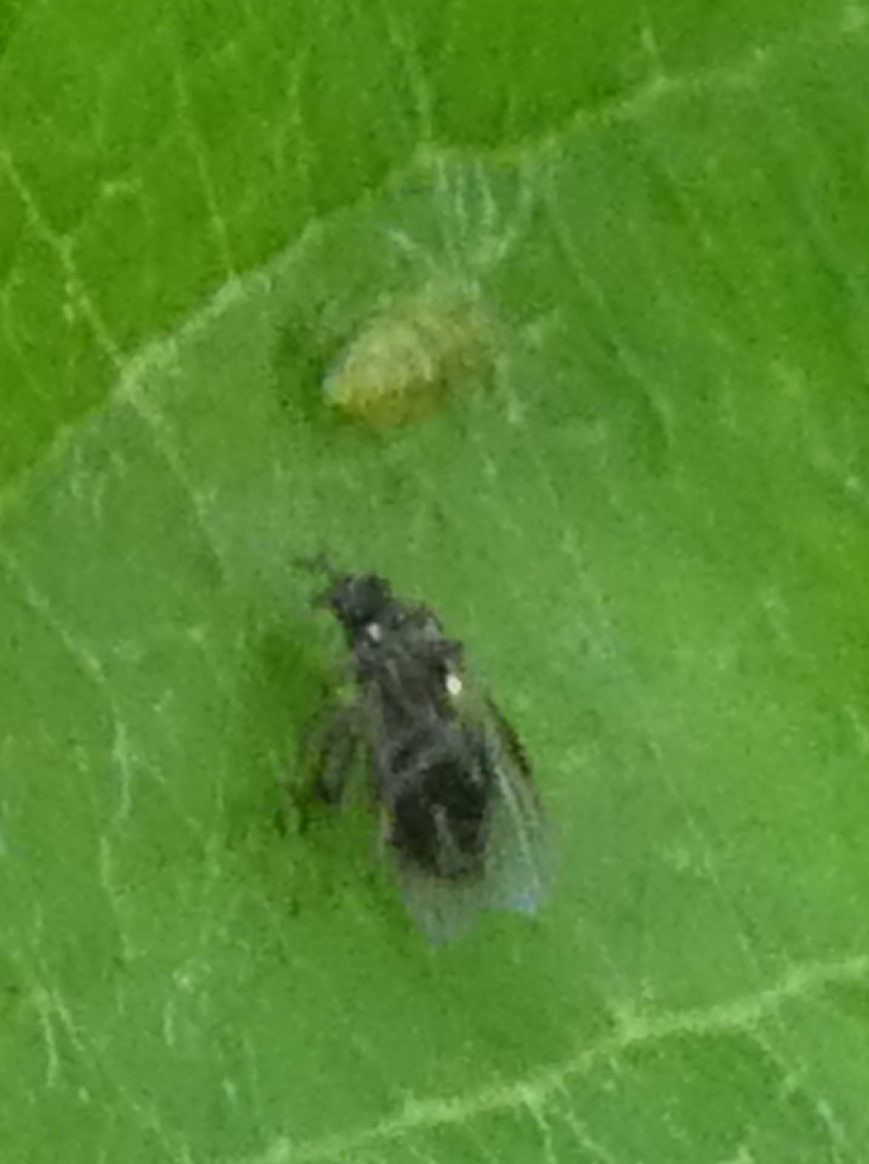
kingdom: Animalia
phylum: Arthropoda
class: Arachnida
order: Araneae
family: Dictynidae
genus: Nigma
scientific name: Nigma walckenaeri
